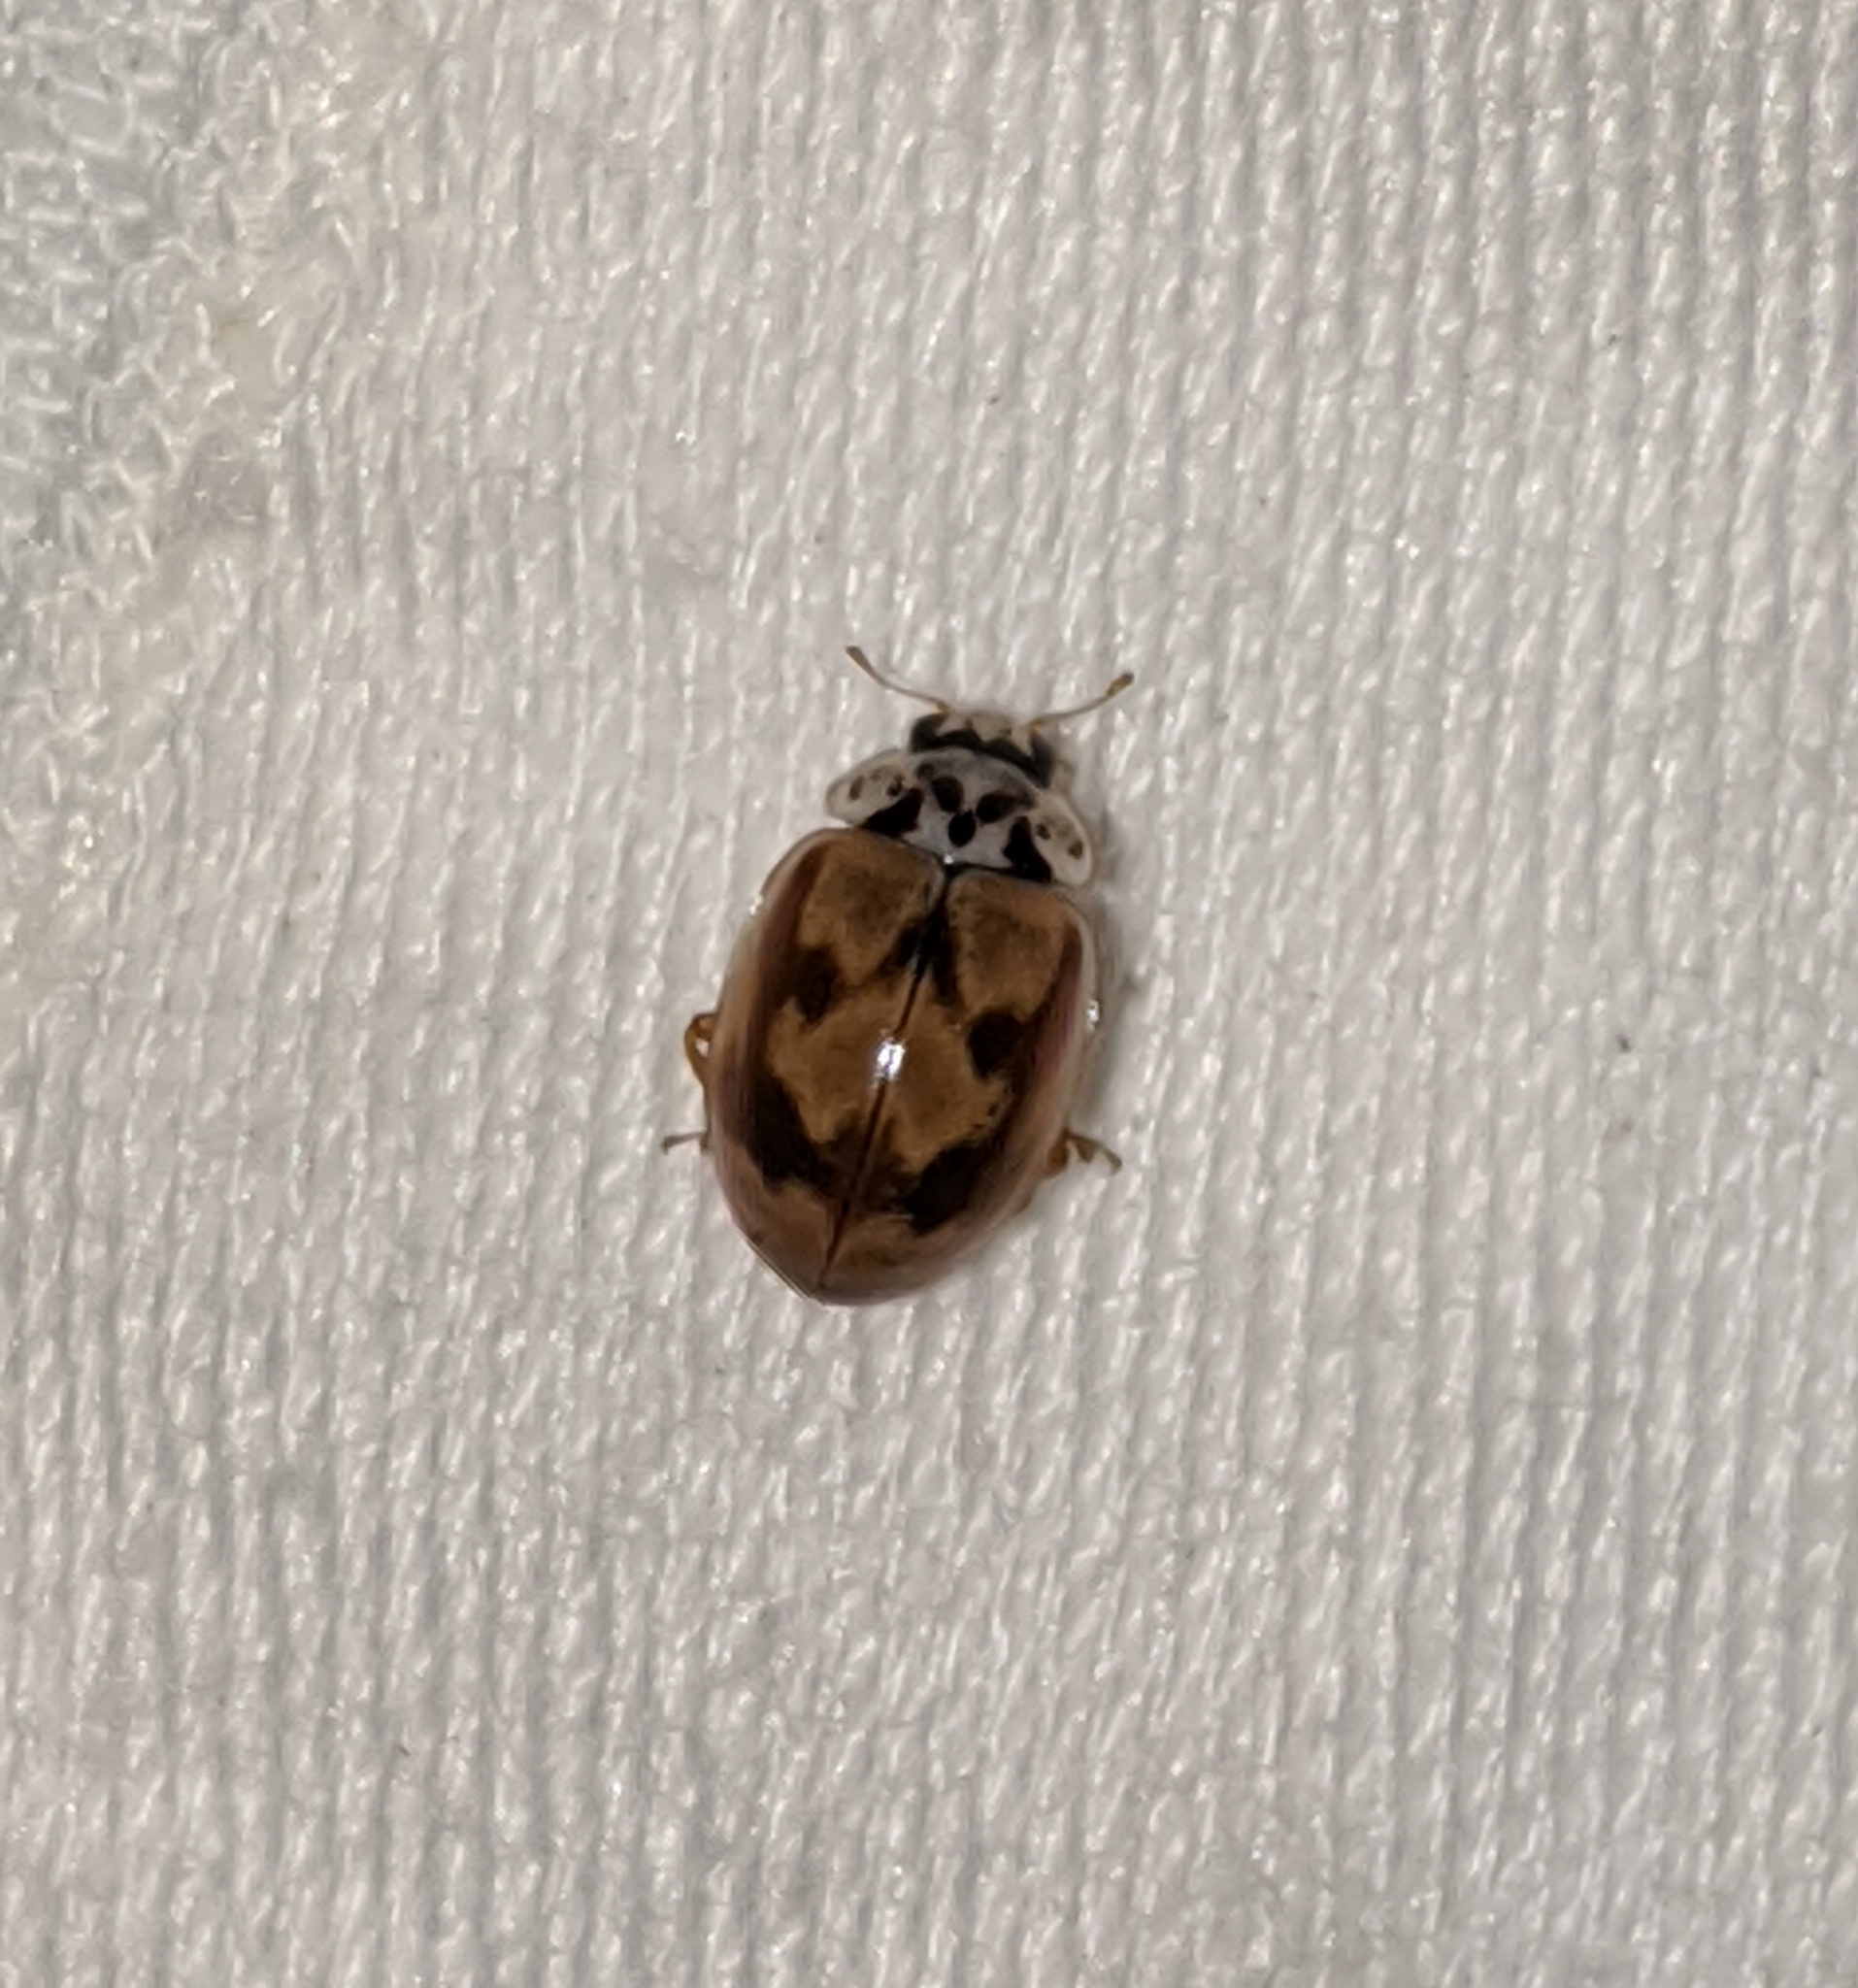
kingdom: Animalia
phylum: Arthropoda
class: Insecta
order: Coleoptera
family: Coccinellidae
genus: Mulsantina
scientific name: Mulsantina picta
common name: Painted ladybird
